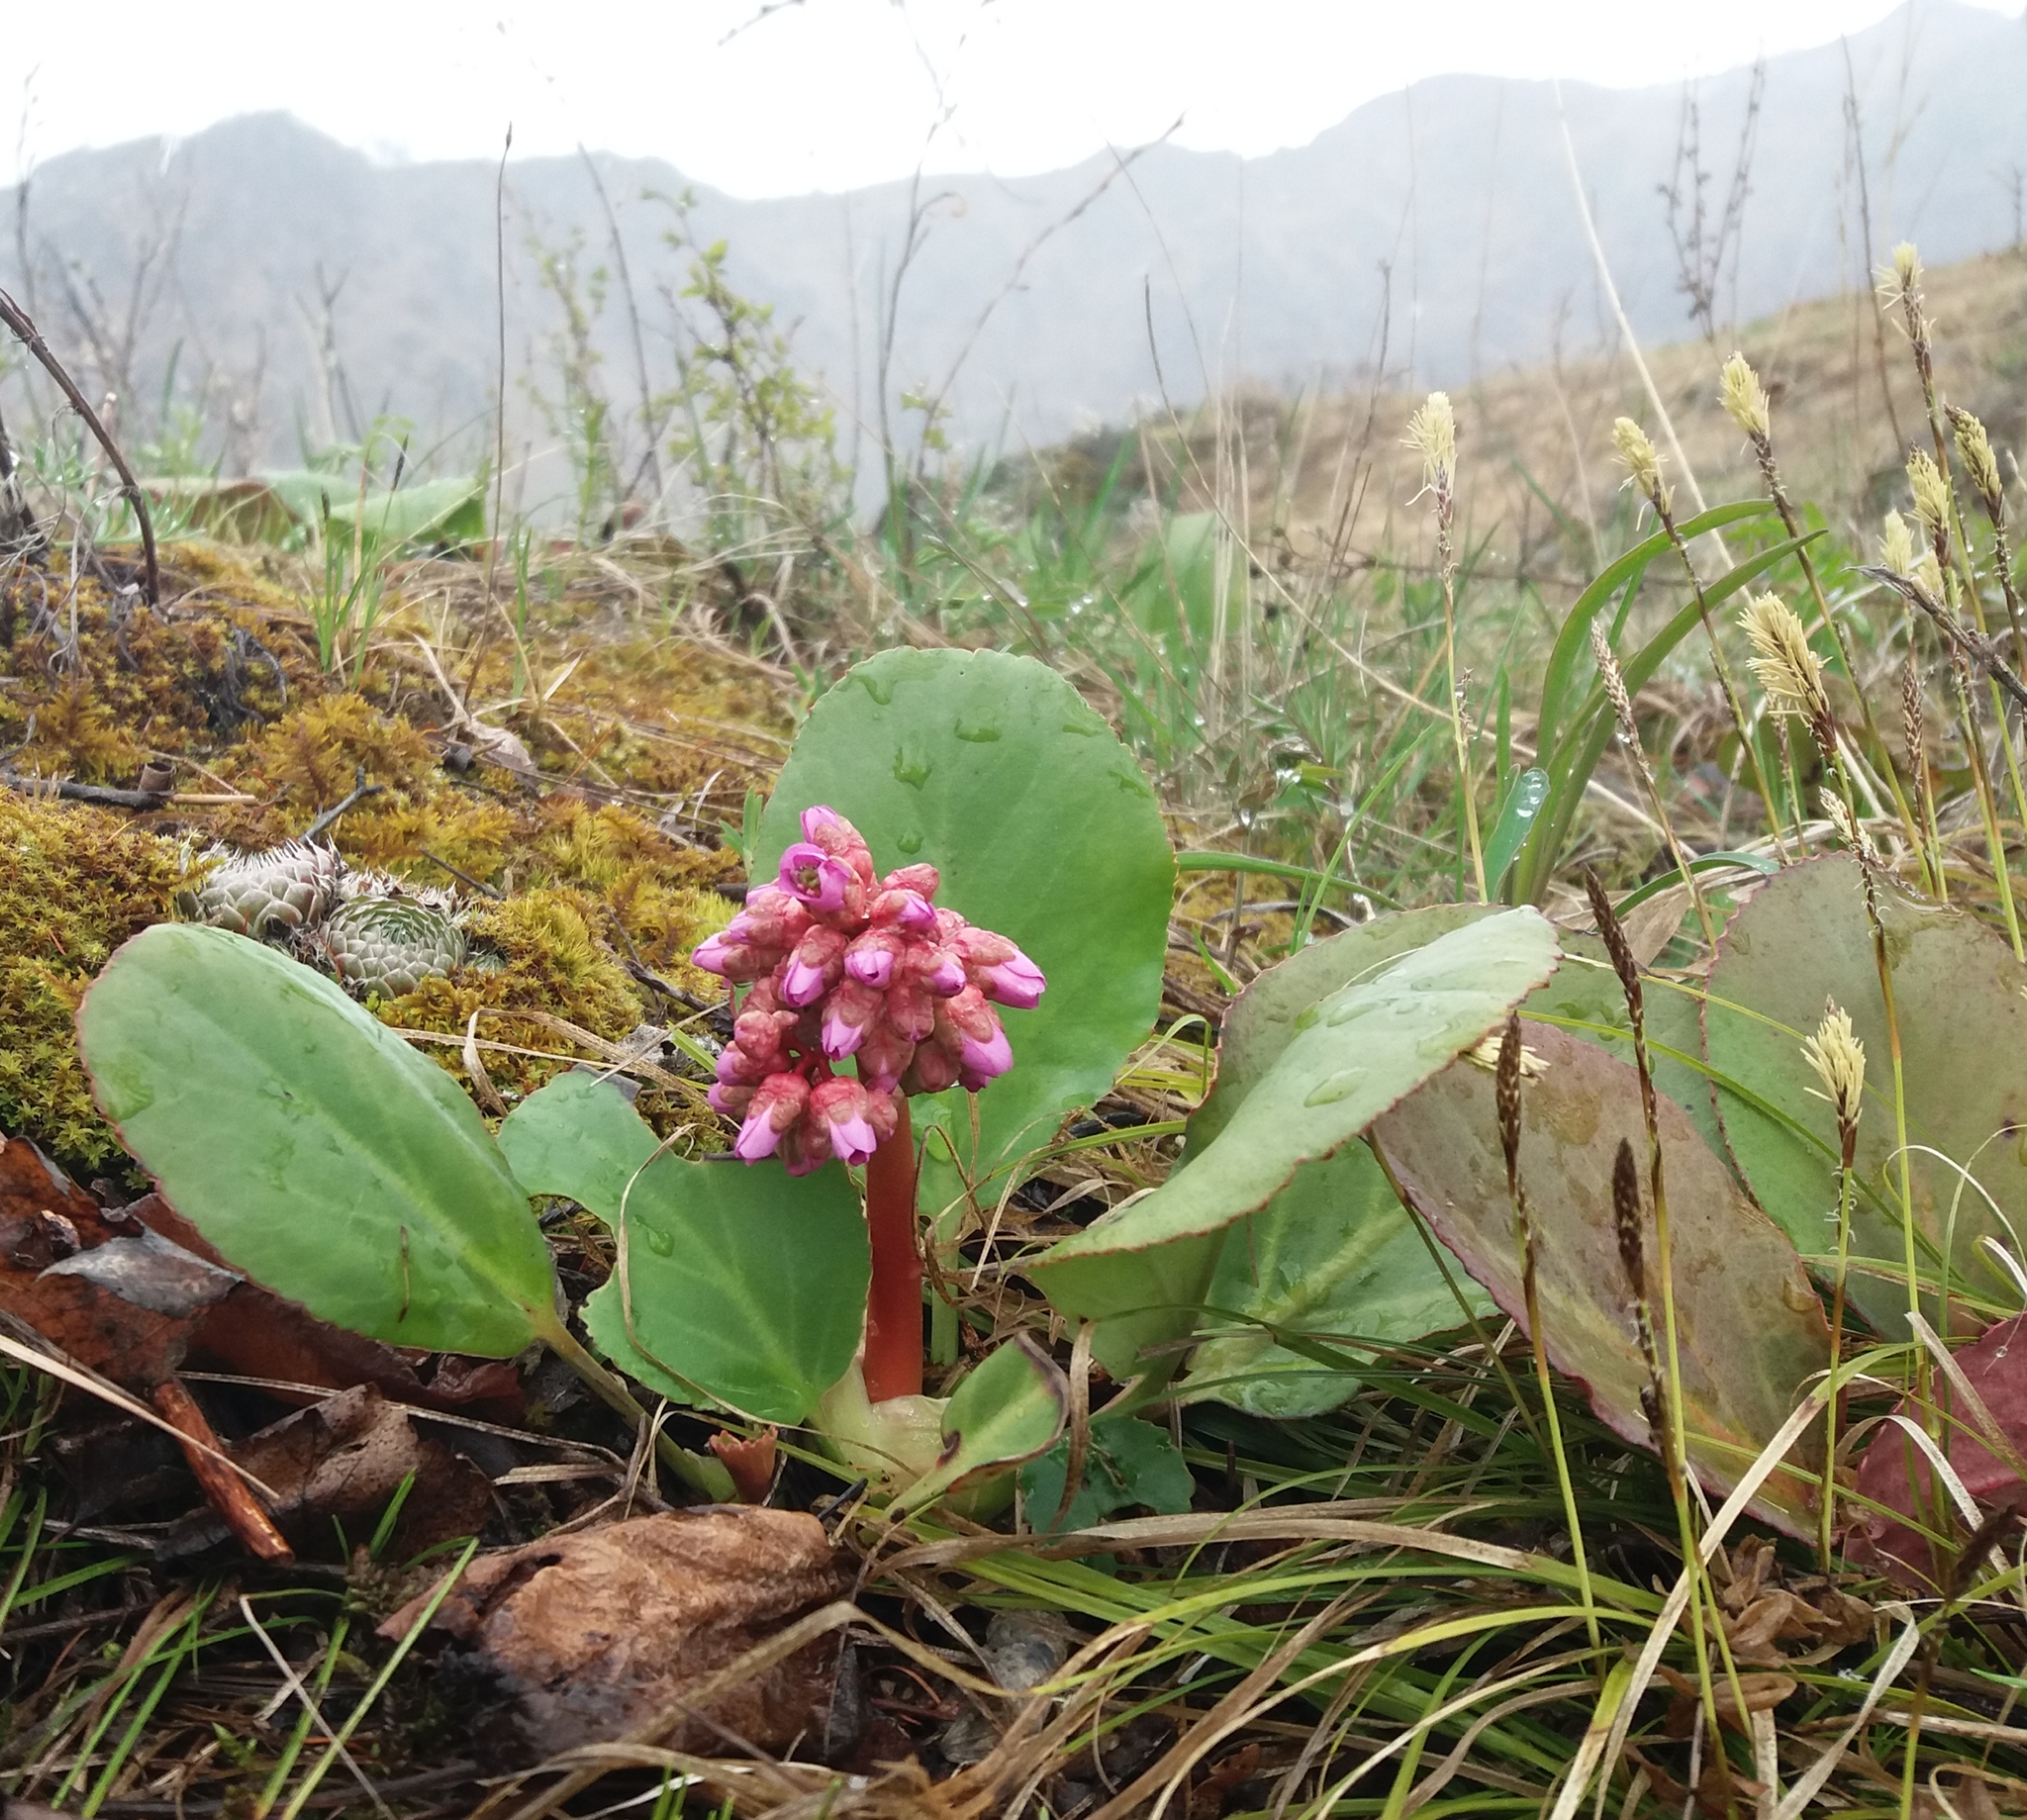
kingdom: Plantae
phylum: Tracheophyta
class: Magnoliopsida
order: Saxifragales
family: Saxifragaceae
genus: Bergenia
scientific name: Bergenia crassifolia
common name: Elephant-ears
